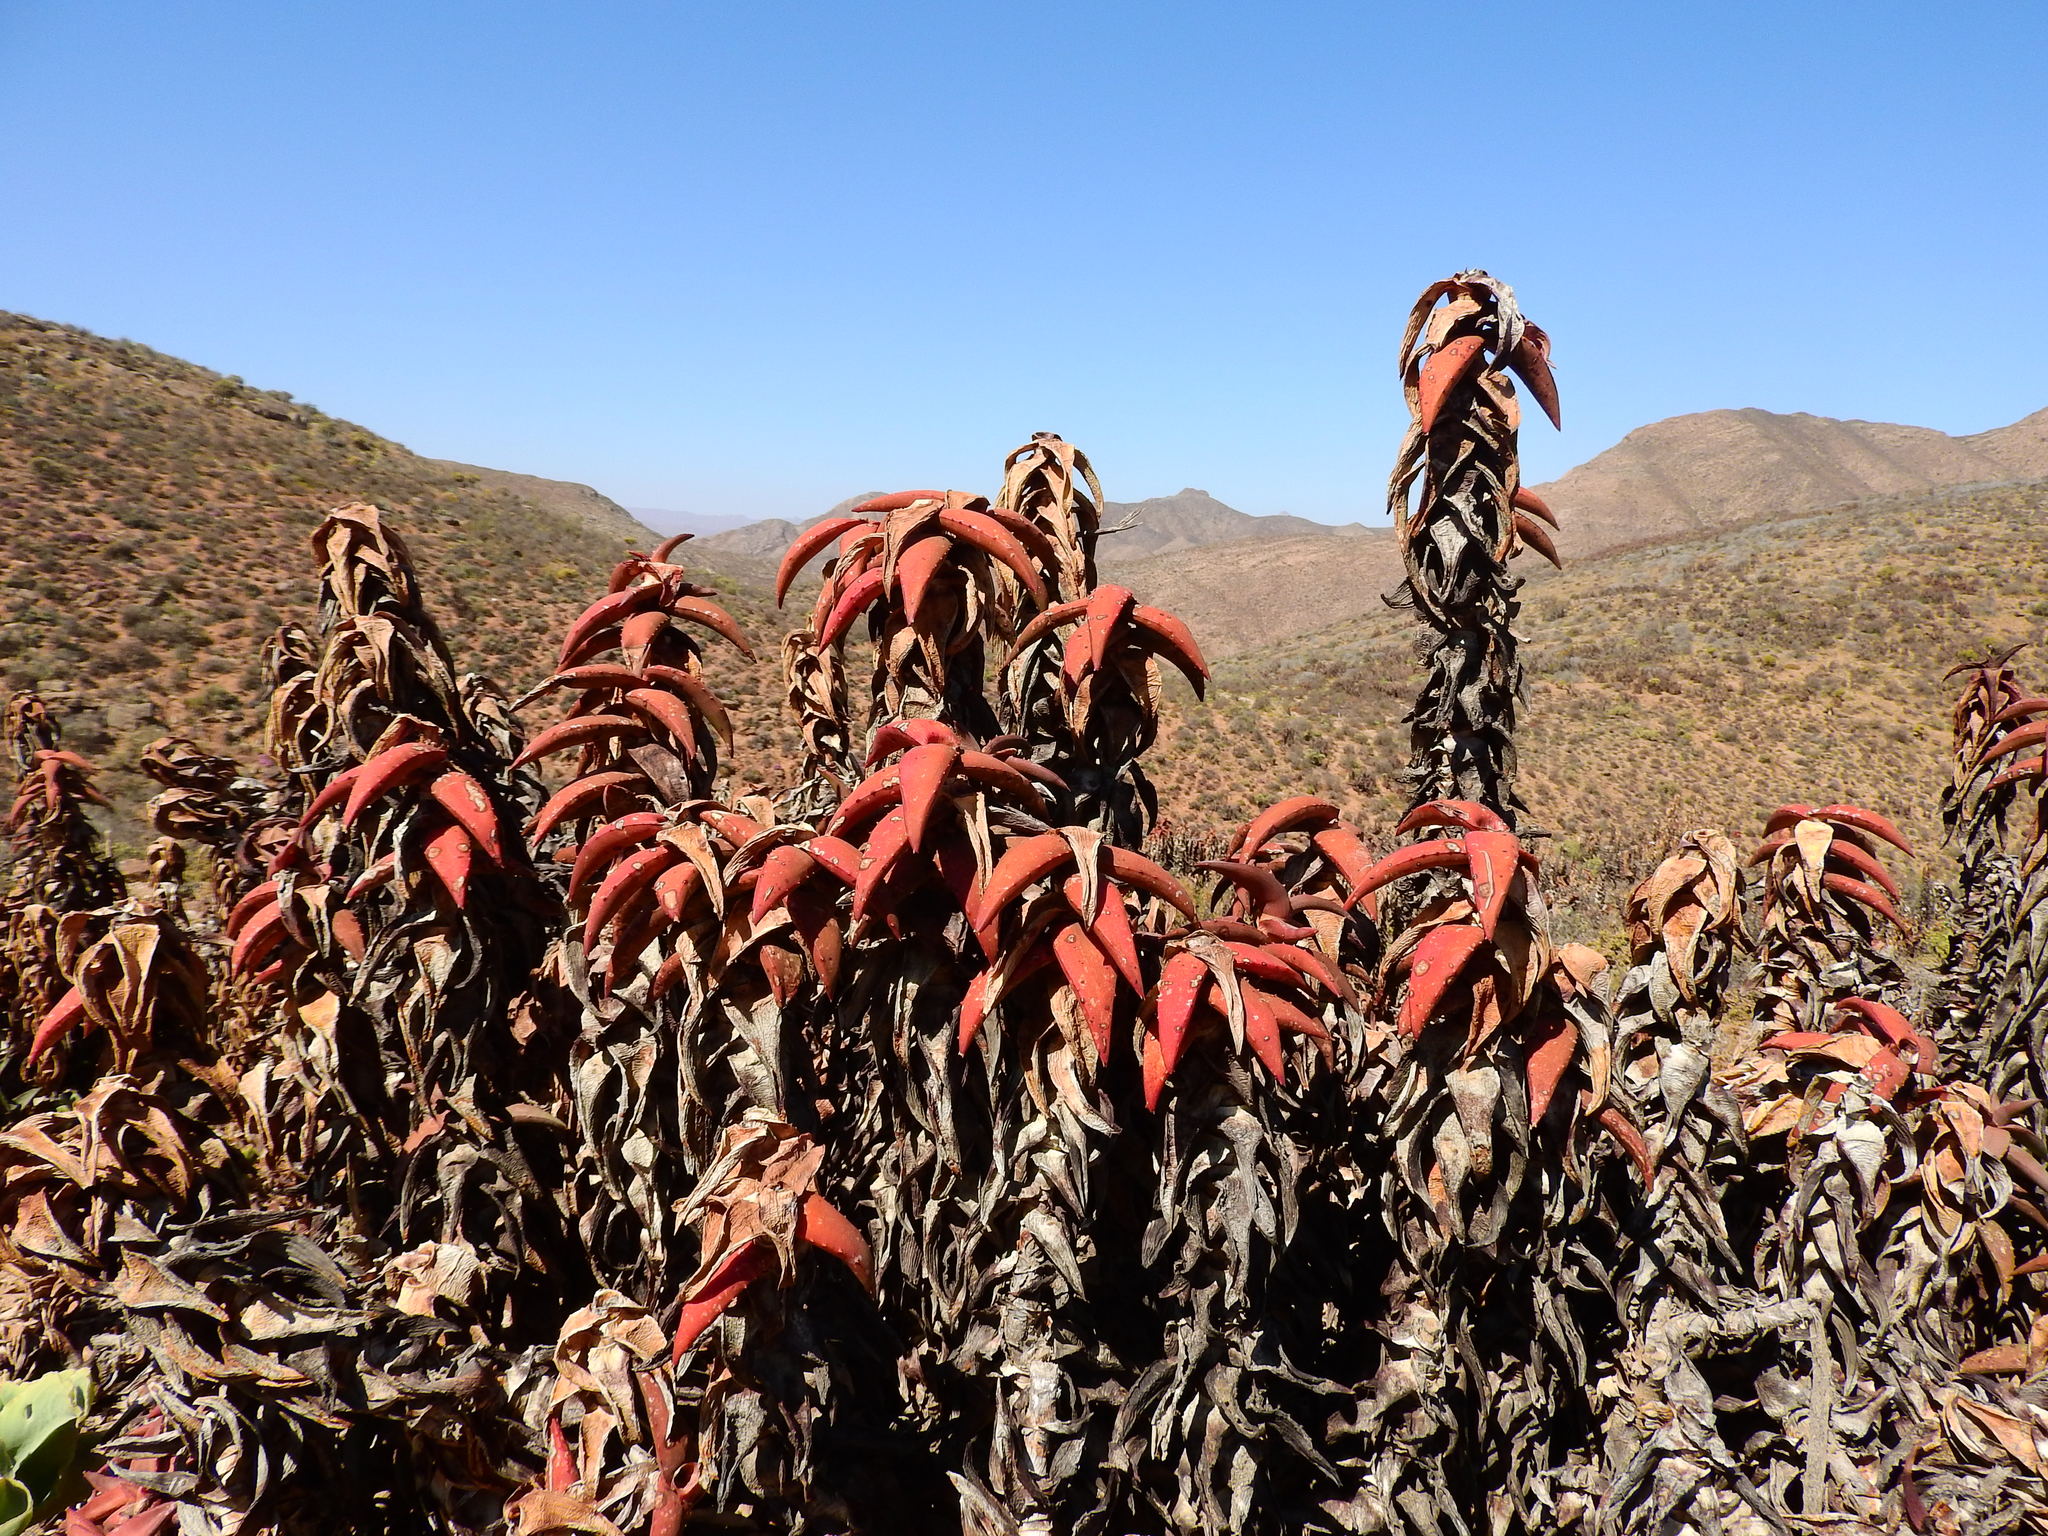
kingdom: Plantae
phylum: Tracheophyta
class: Liliopsida
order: Asparagales
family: Asphodelaceae
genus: Aloe
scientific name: Aloe pearsonii
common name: Pearson's aloe
